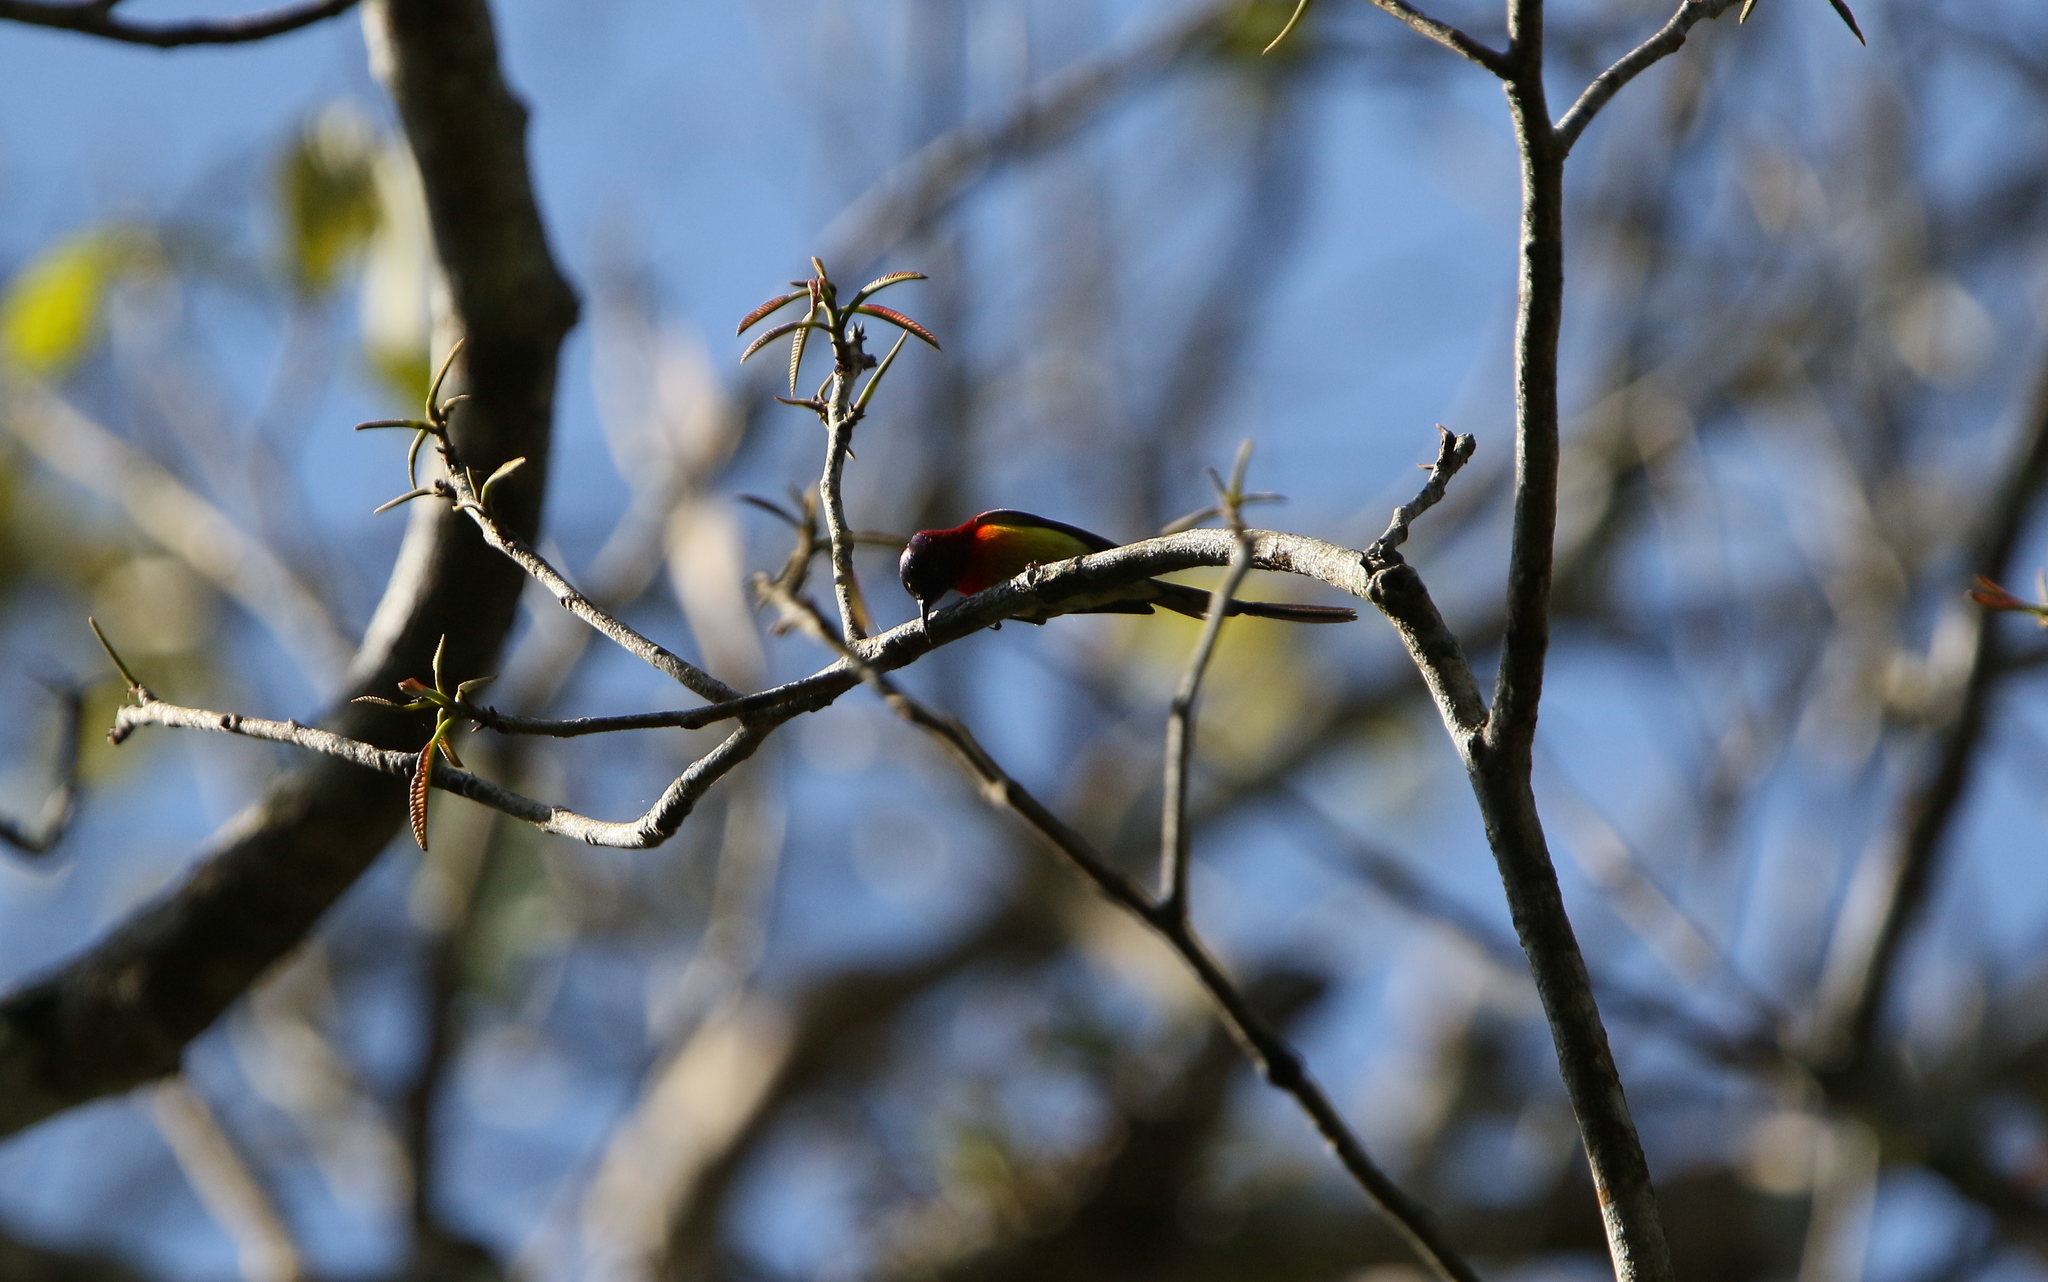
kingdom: Animalia
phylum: Chordata
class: Aves
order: Passeriformes
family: Nectariniidae
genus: Aethopyga
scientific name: Aethopyga gouldiae
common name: Mrs. gould's sunbird
